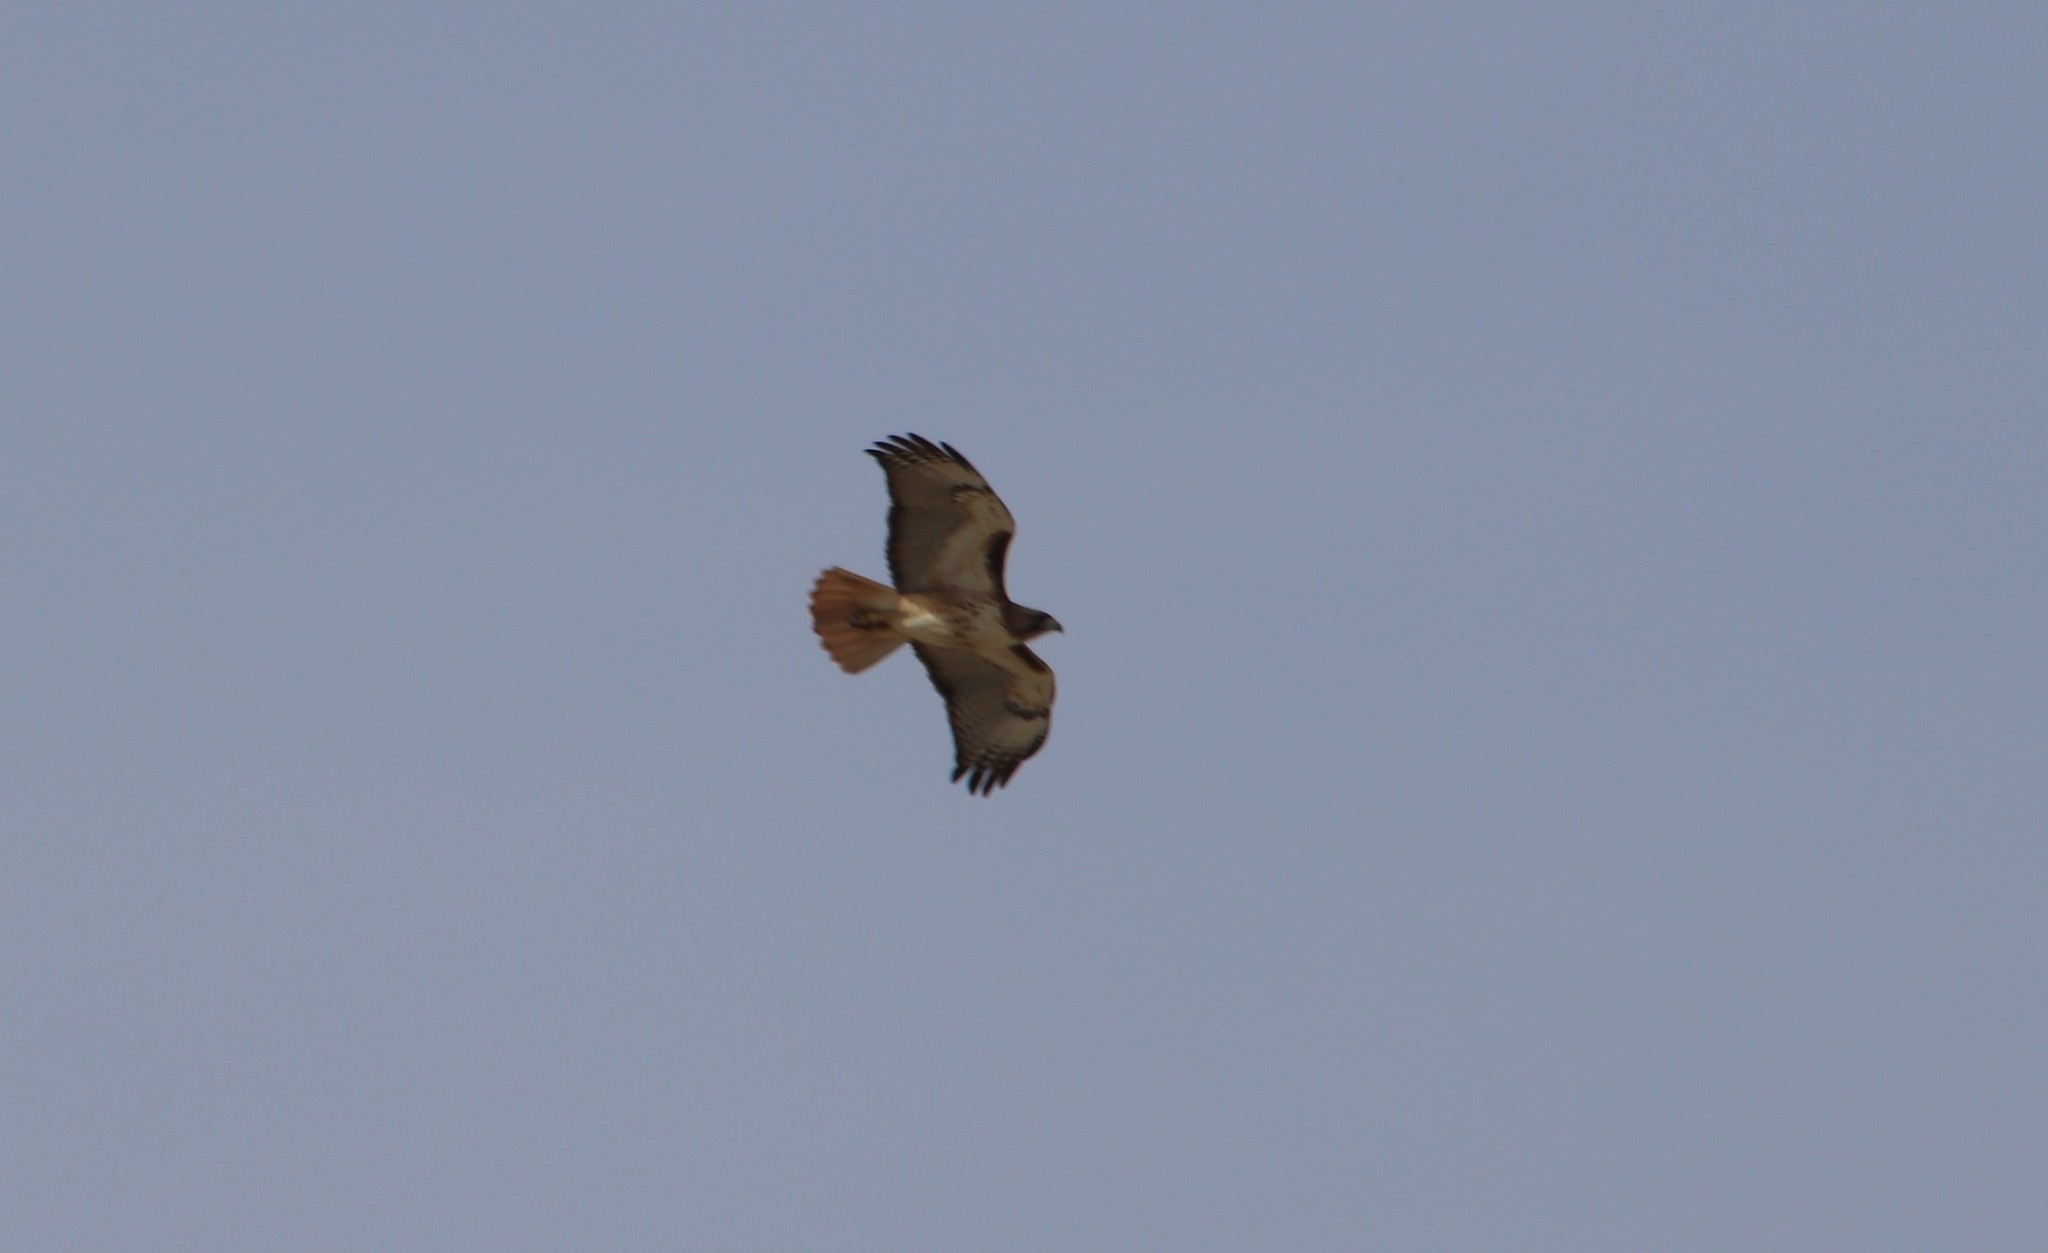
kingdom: Animalia
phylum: Chordata
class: Aves
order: Accipitriformes
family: Accipitridae
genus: Buteo
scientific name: Buteo jamaicensis
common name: Red-tailed hawk
